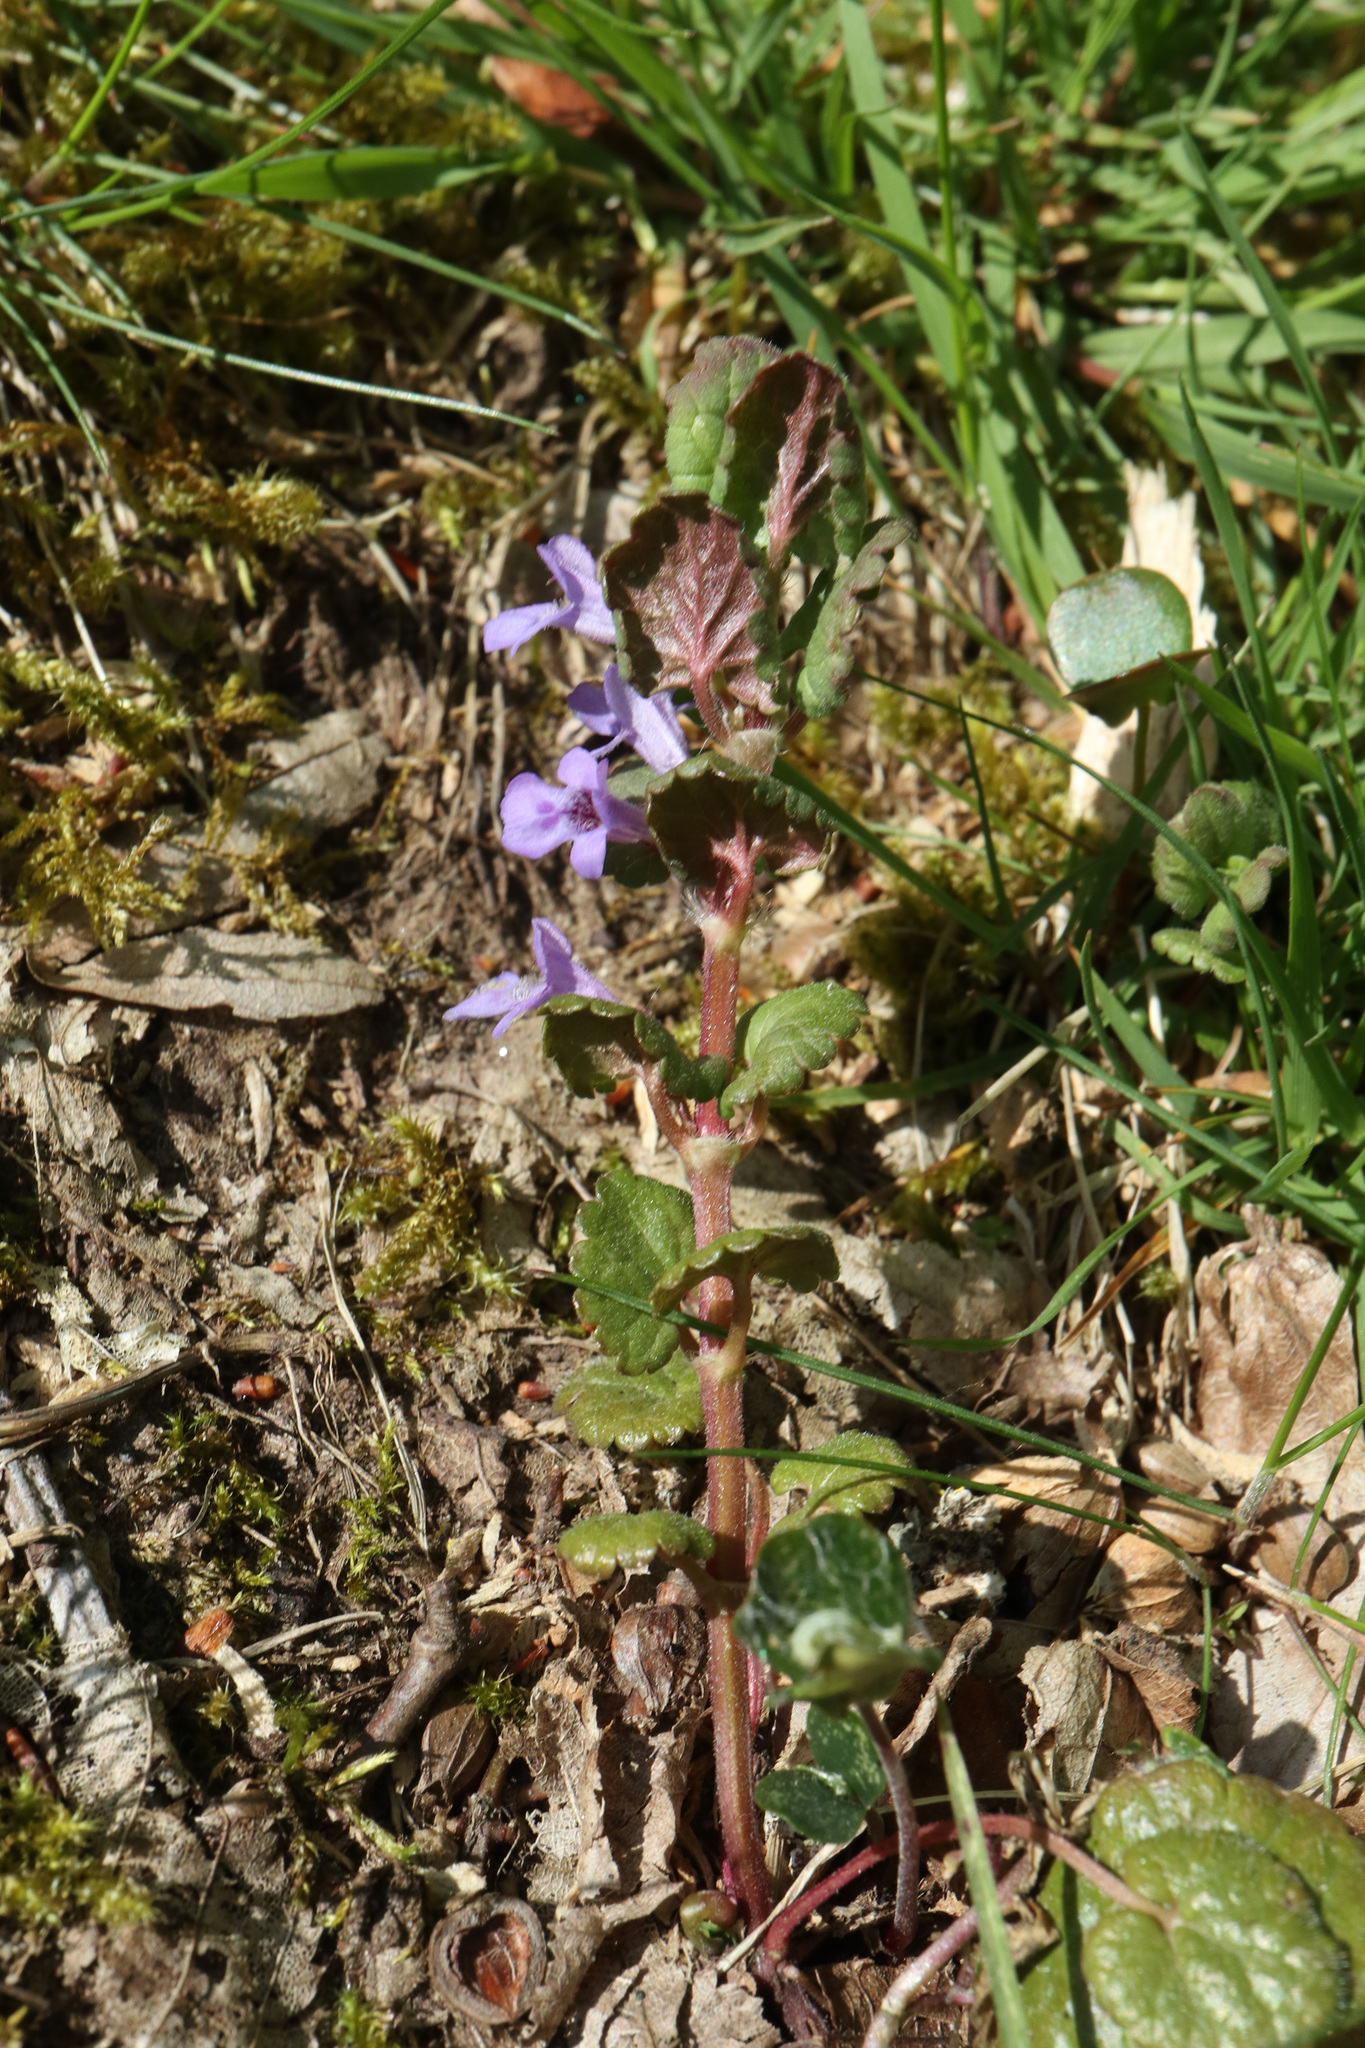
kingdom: Plantae
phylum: Tracheophyta
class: Magnoliopsida
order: Lamiales
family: Lamiaceae
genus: Glechoma
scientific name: Glechoma hederacea
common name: Ground ivy
